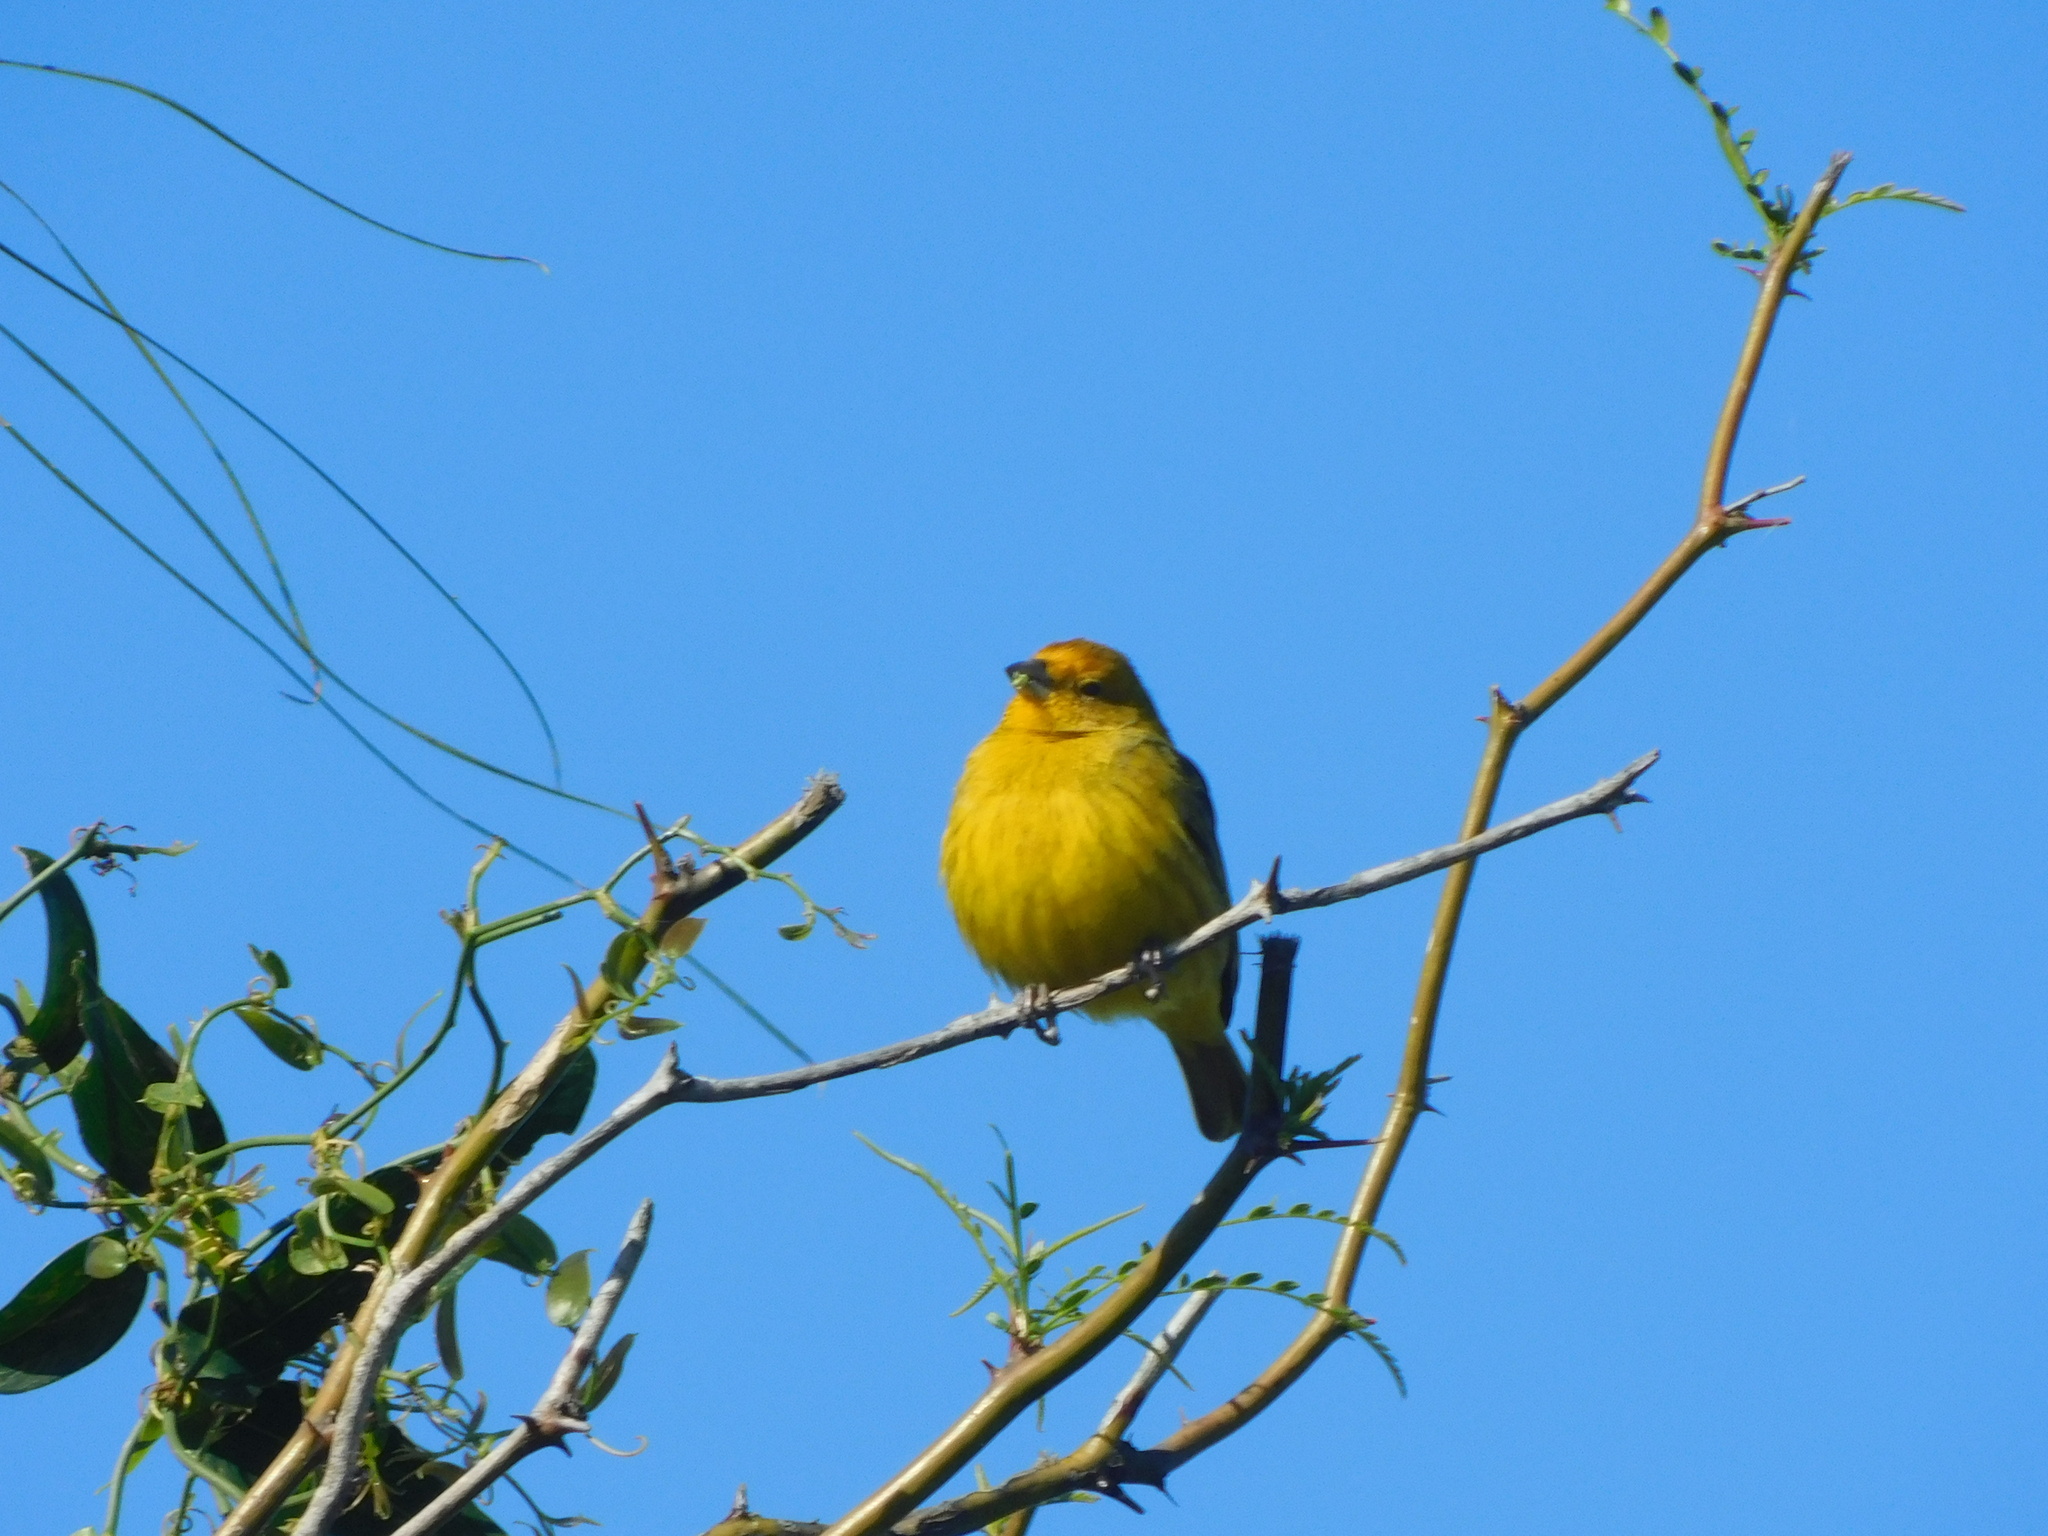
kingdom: Animalia
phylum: Chordata
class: Aves
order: Passeriformes
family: Thraupidae
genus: Sicalis
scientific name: Sicalis flaveola
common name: Saffron finch
